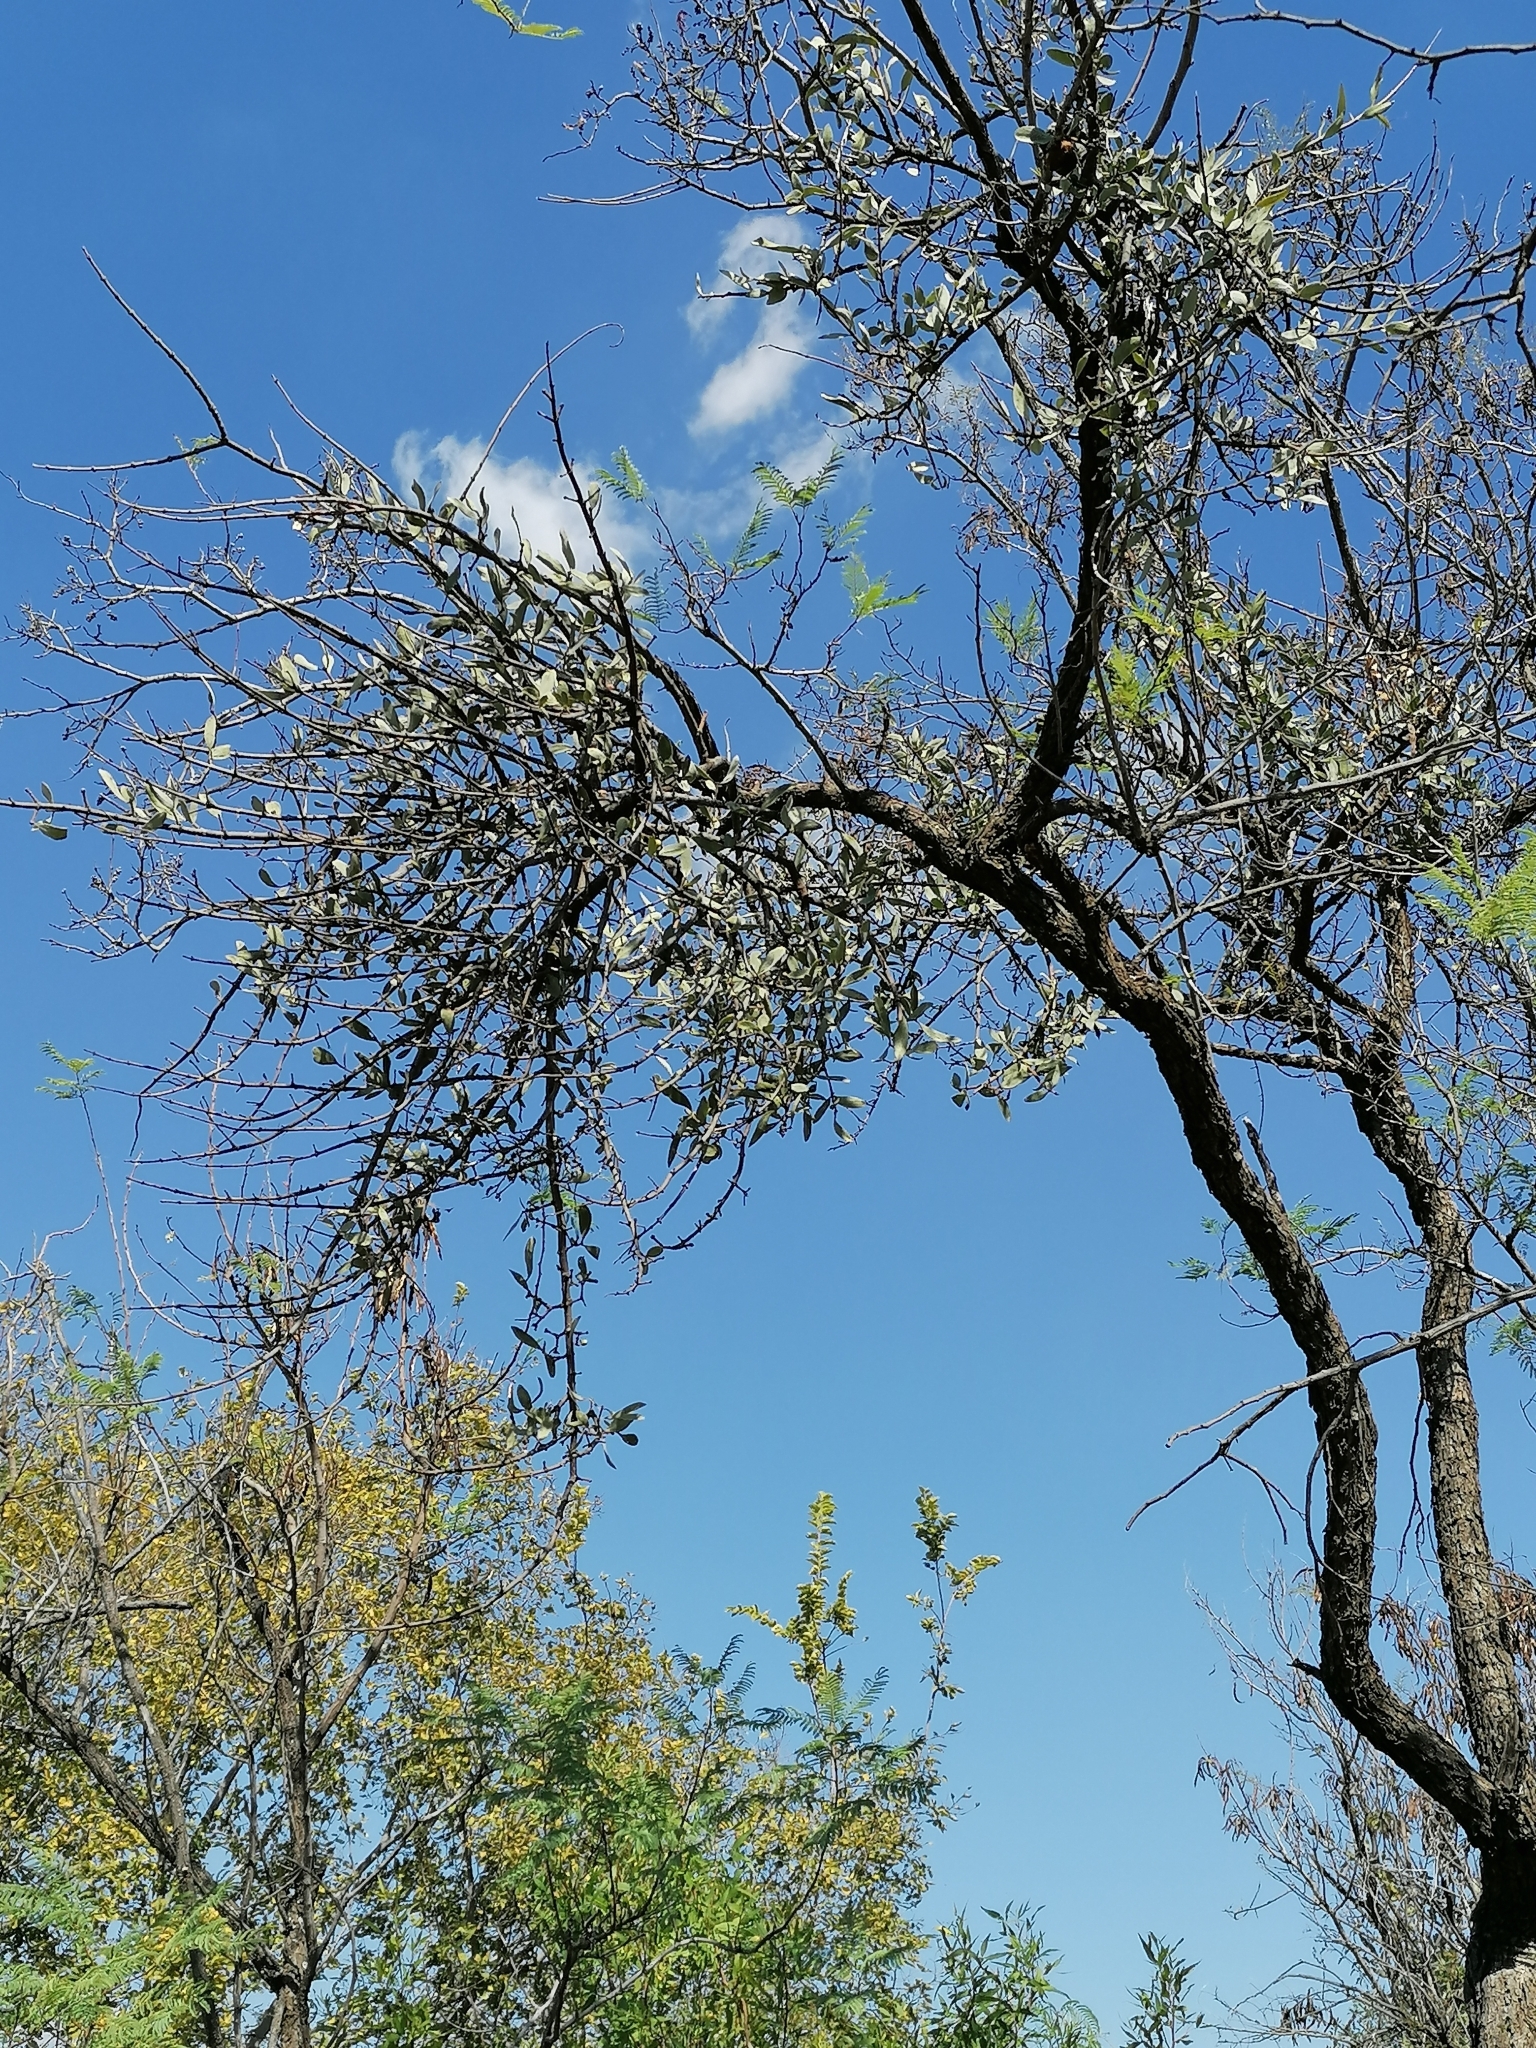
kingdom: Plantae
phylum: Tracheophyta
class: Magnoliopsida
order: Santalales
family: Loranthaceae
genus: Agelanthus
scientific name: Agelanthus natalitius
